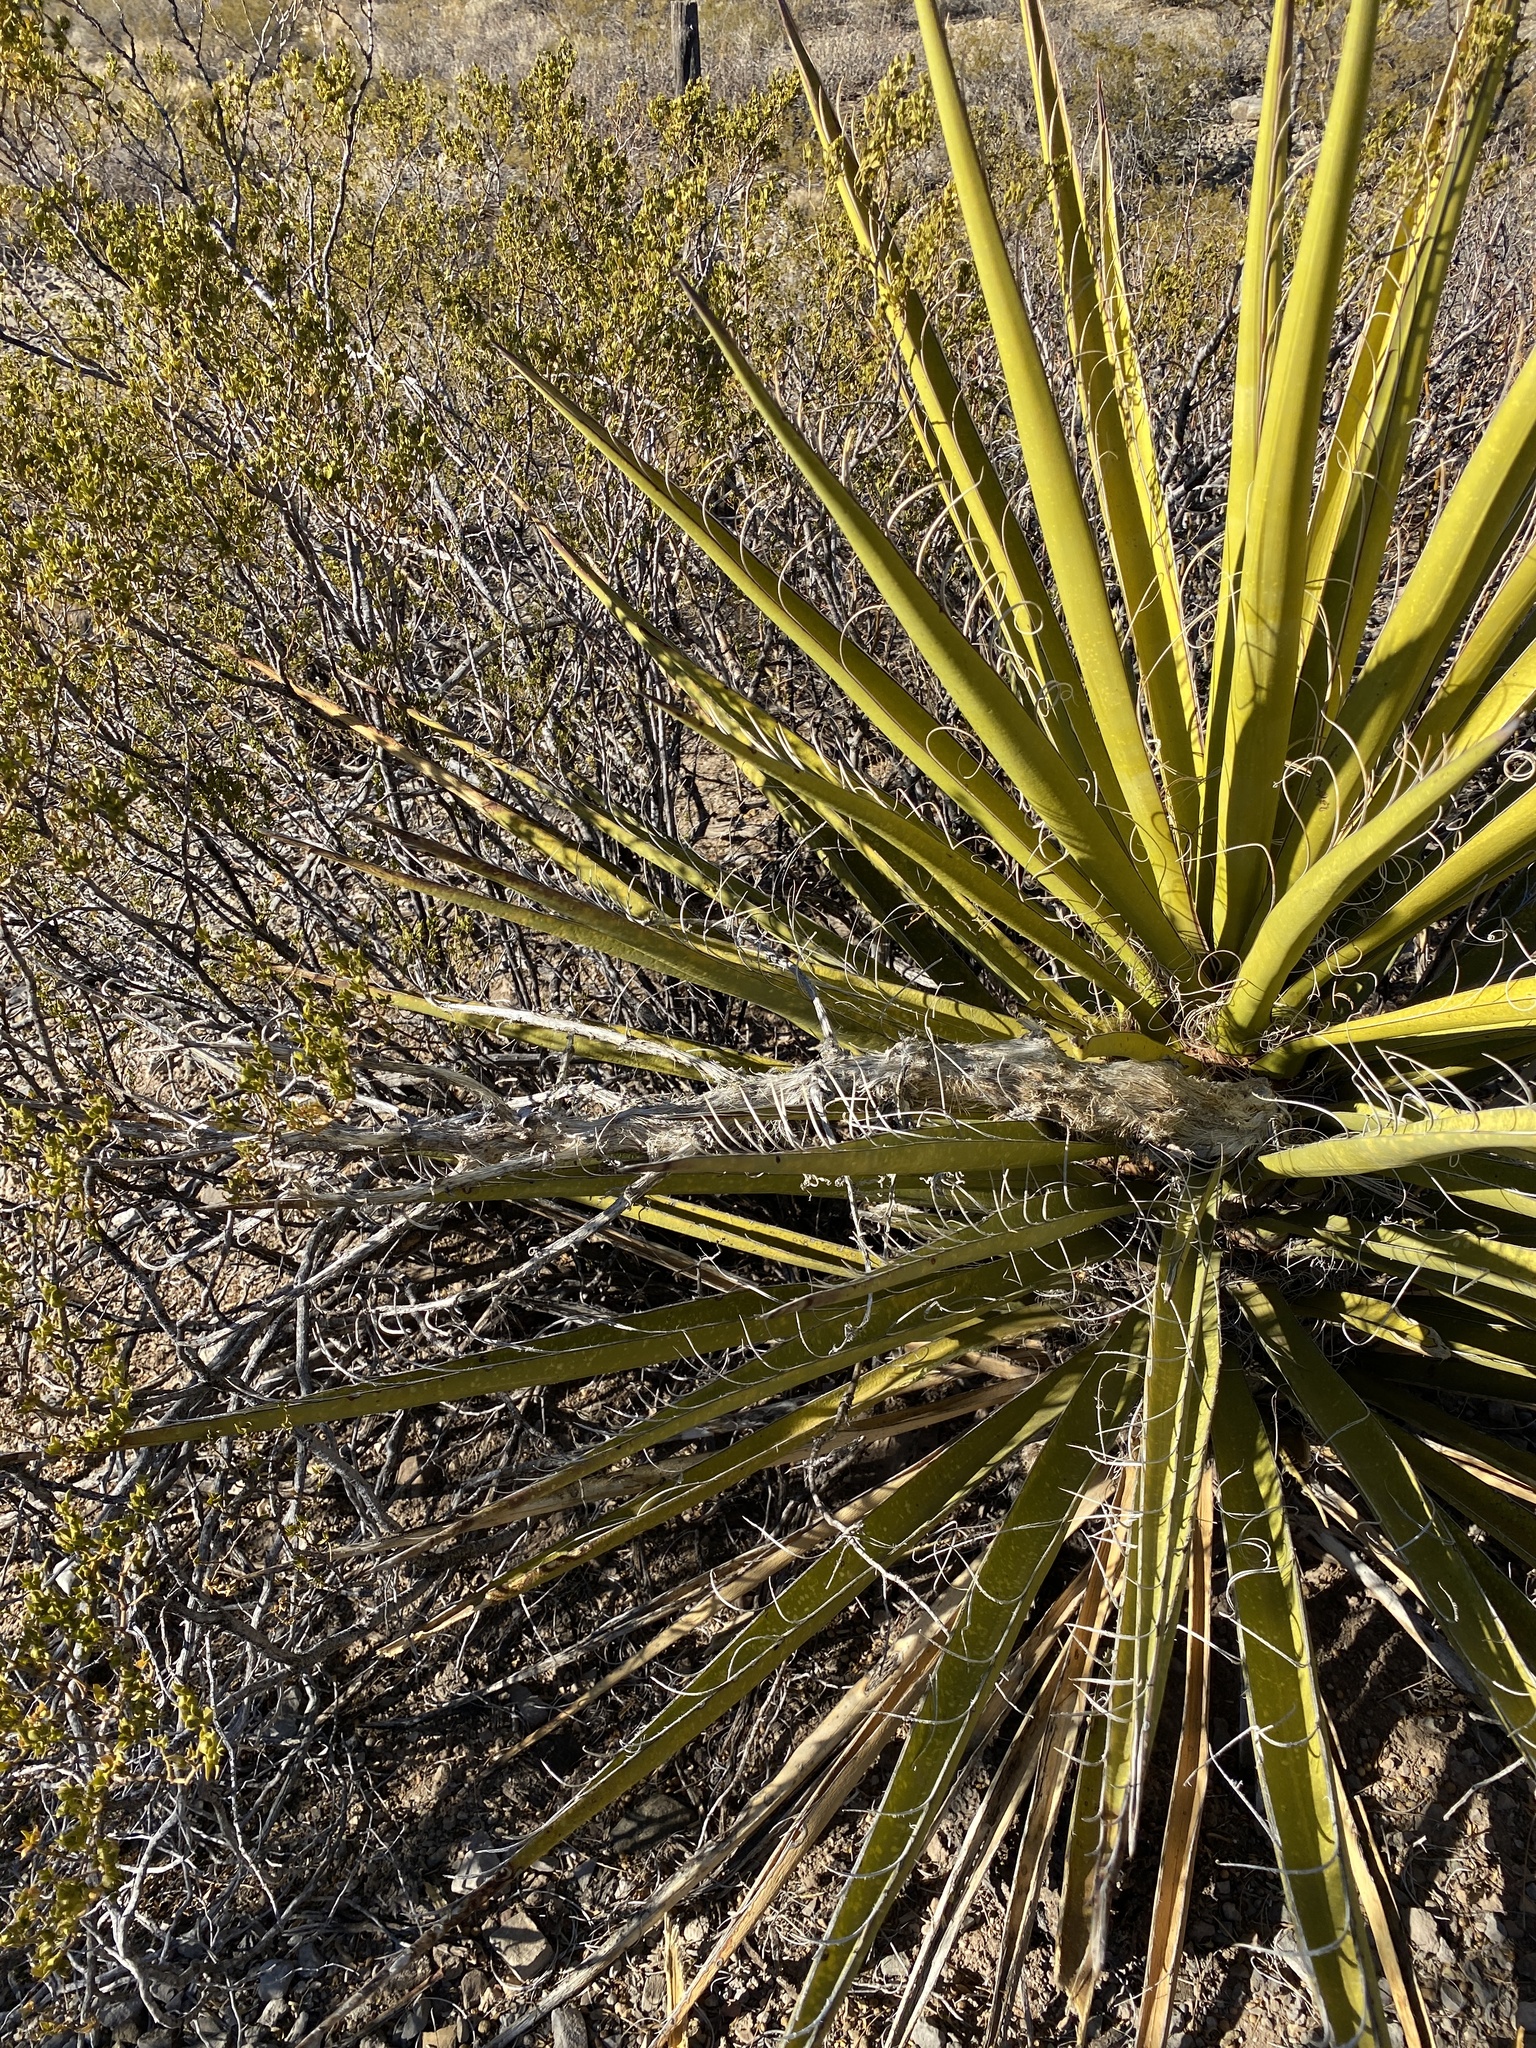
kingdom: Plantae
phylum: Tracheophyta
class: Liliopsida
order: Asparagales
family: Asparagaceae
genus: Yucca
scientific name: Yucca treculiana
